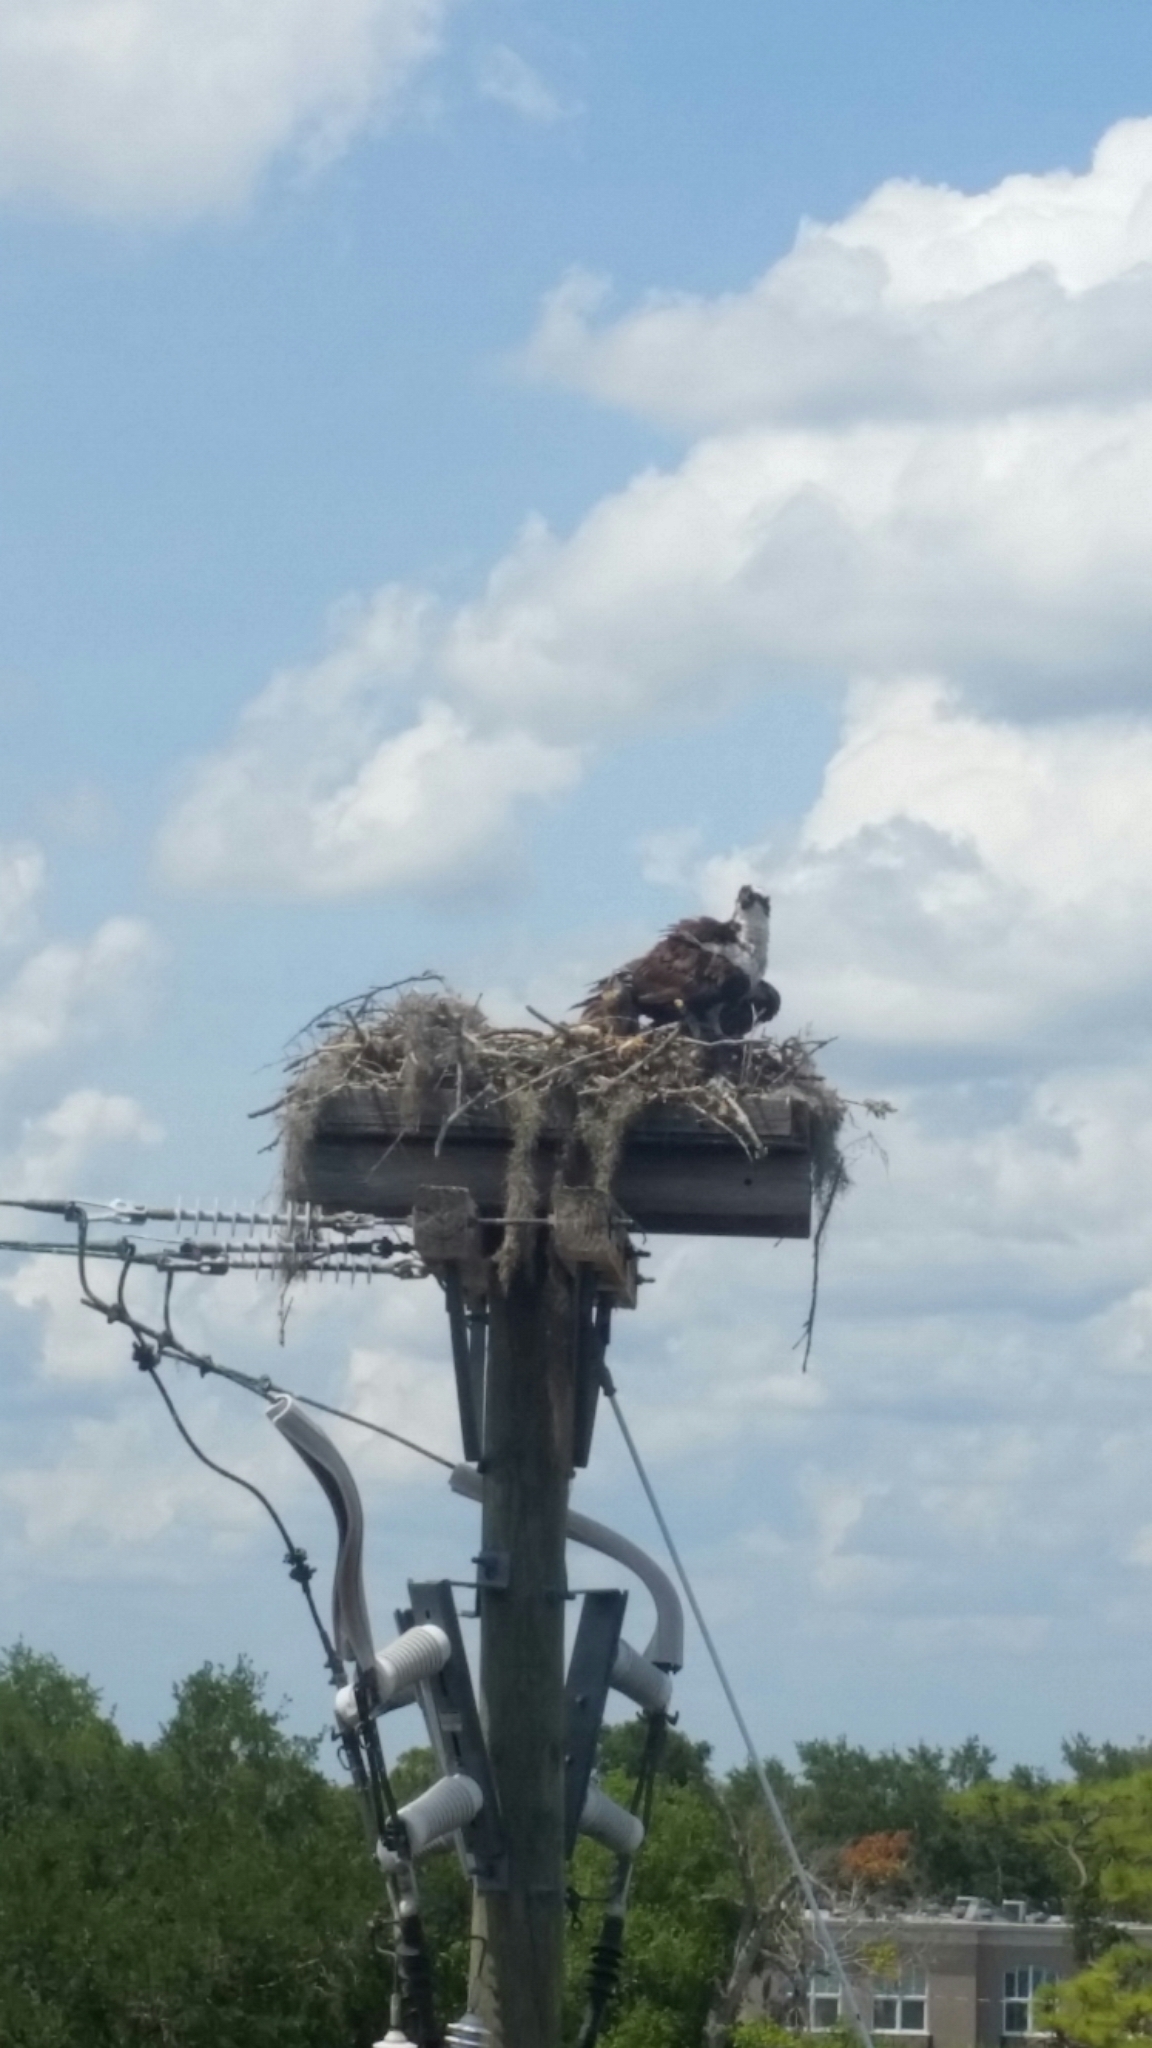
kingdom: Animalia
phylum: Chordata
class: Aves
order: Accipitriformes
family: Pandionidae
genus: Pandion
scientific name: Pandion haliaetus
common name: Osprey
